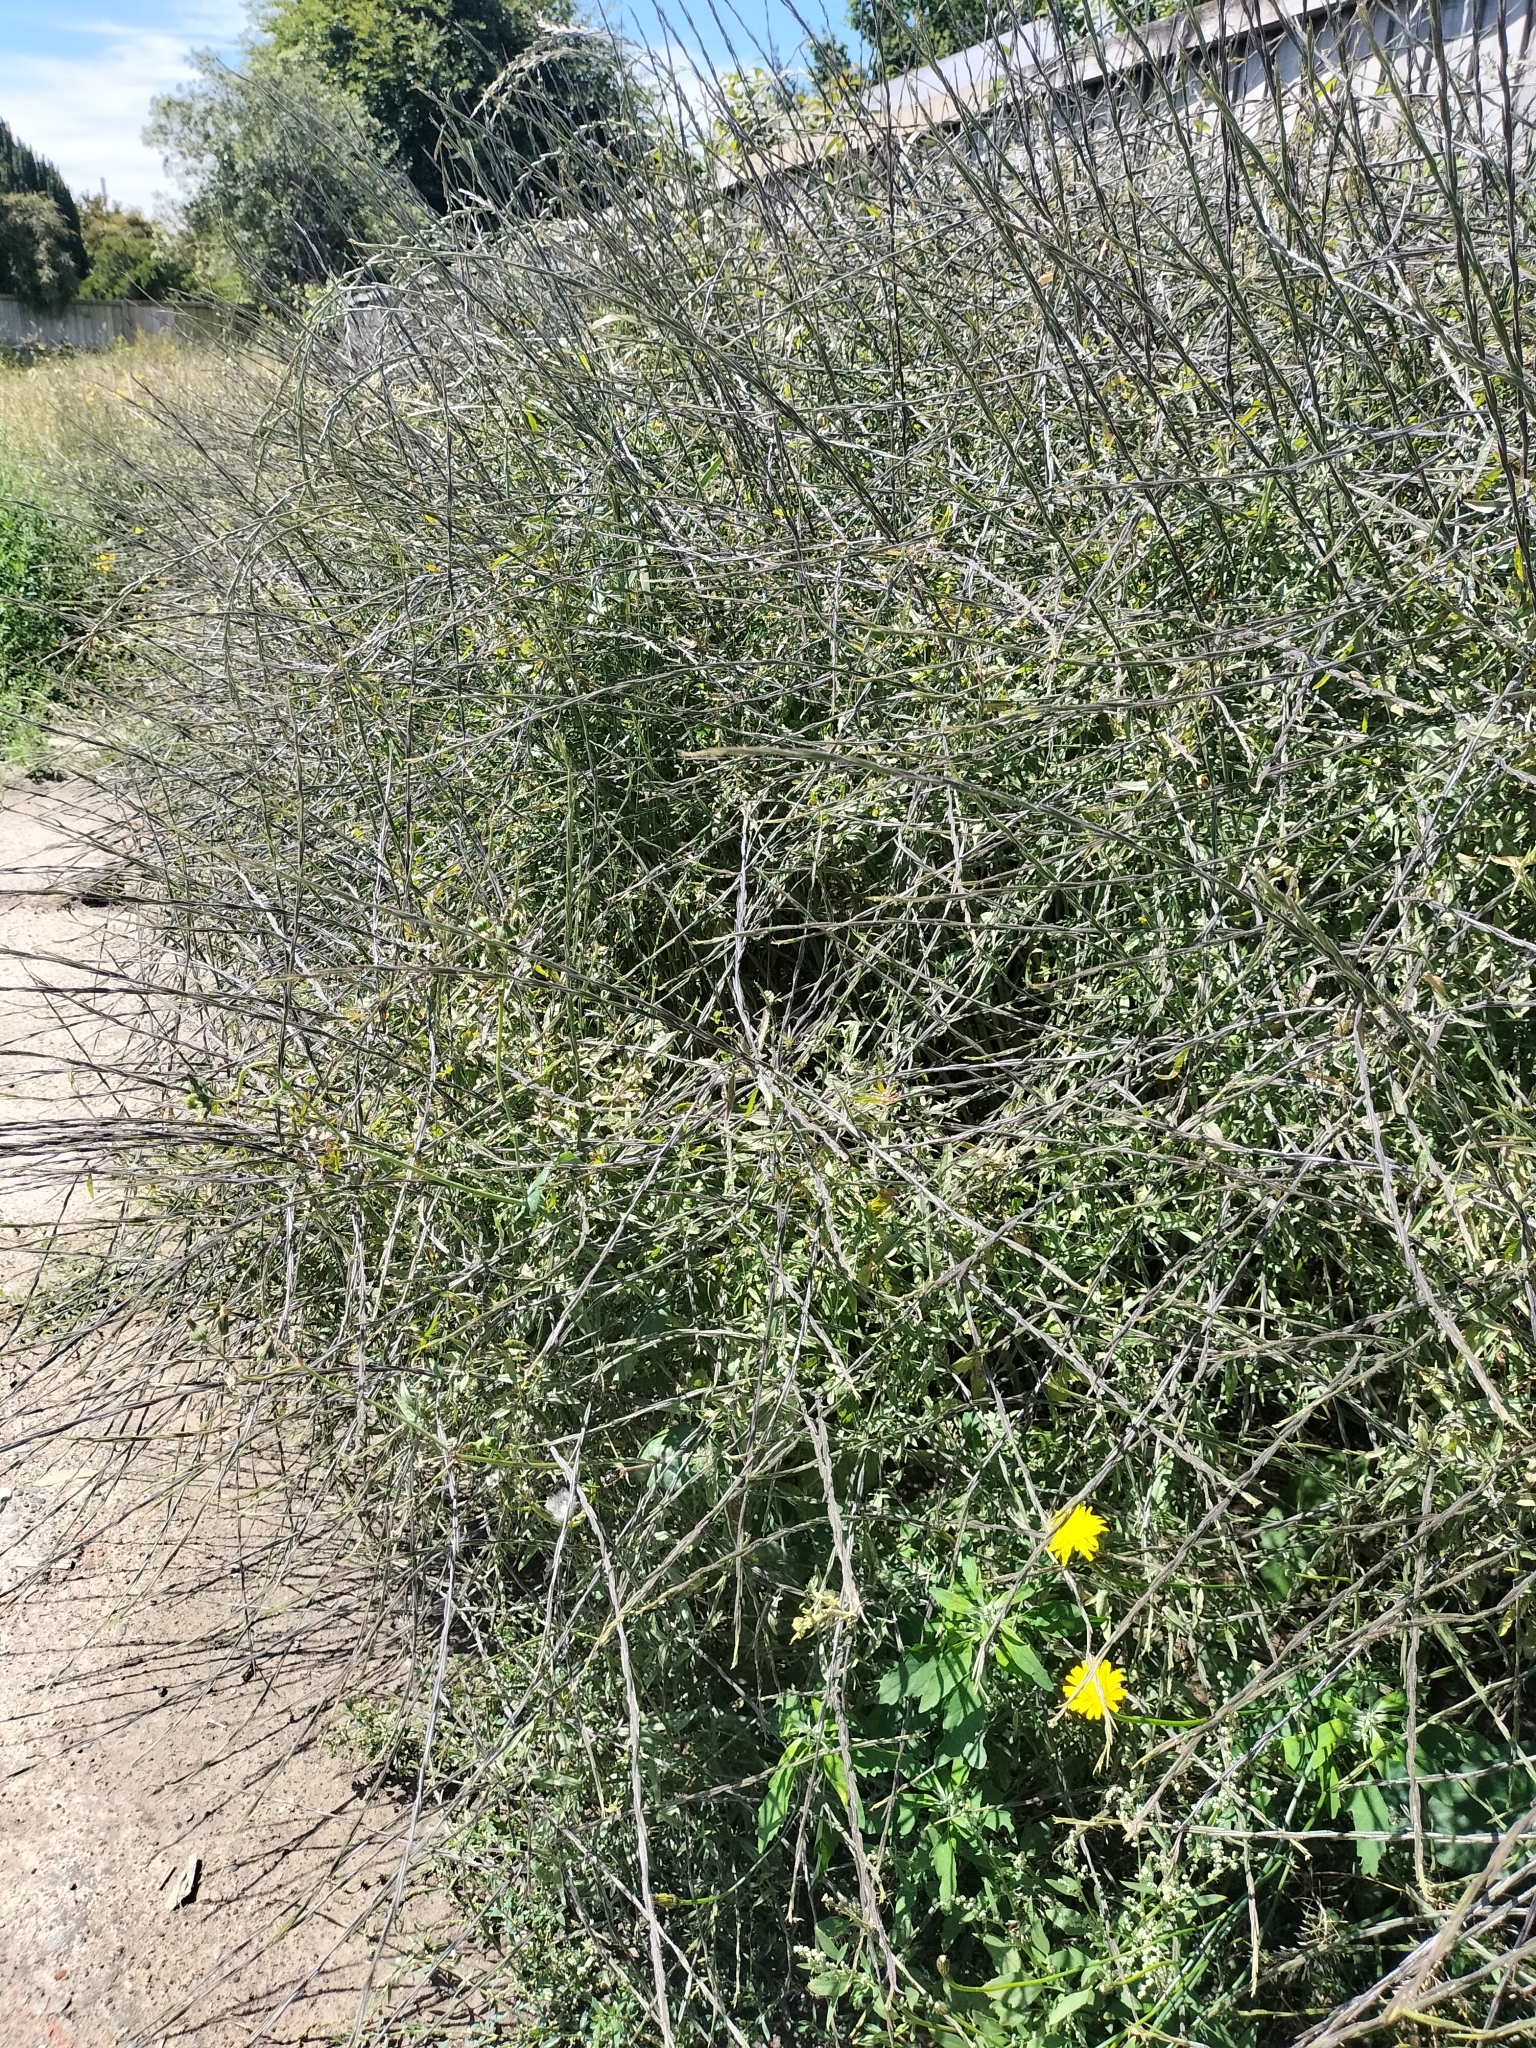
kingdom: Plantae
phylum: Tracheophyta
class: Magnoliopsida
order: Brassicales
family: Brassicaceae
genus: Sisymbrium
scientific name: Sisymbrium officinale
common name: Hedge mustard
